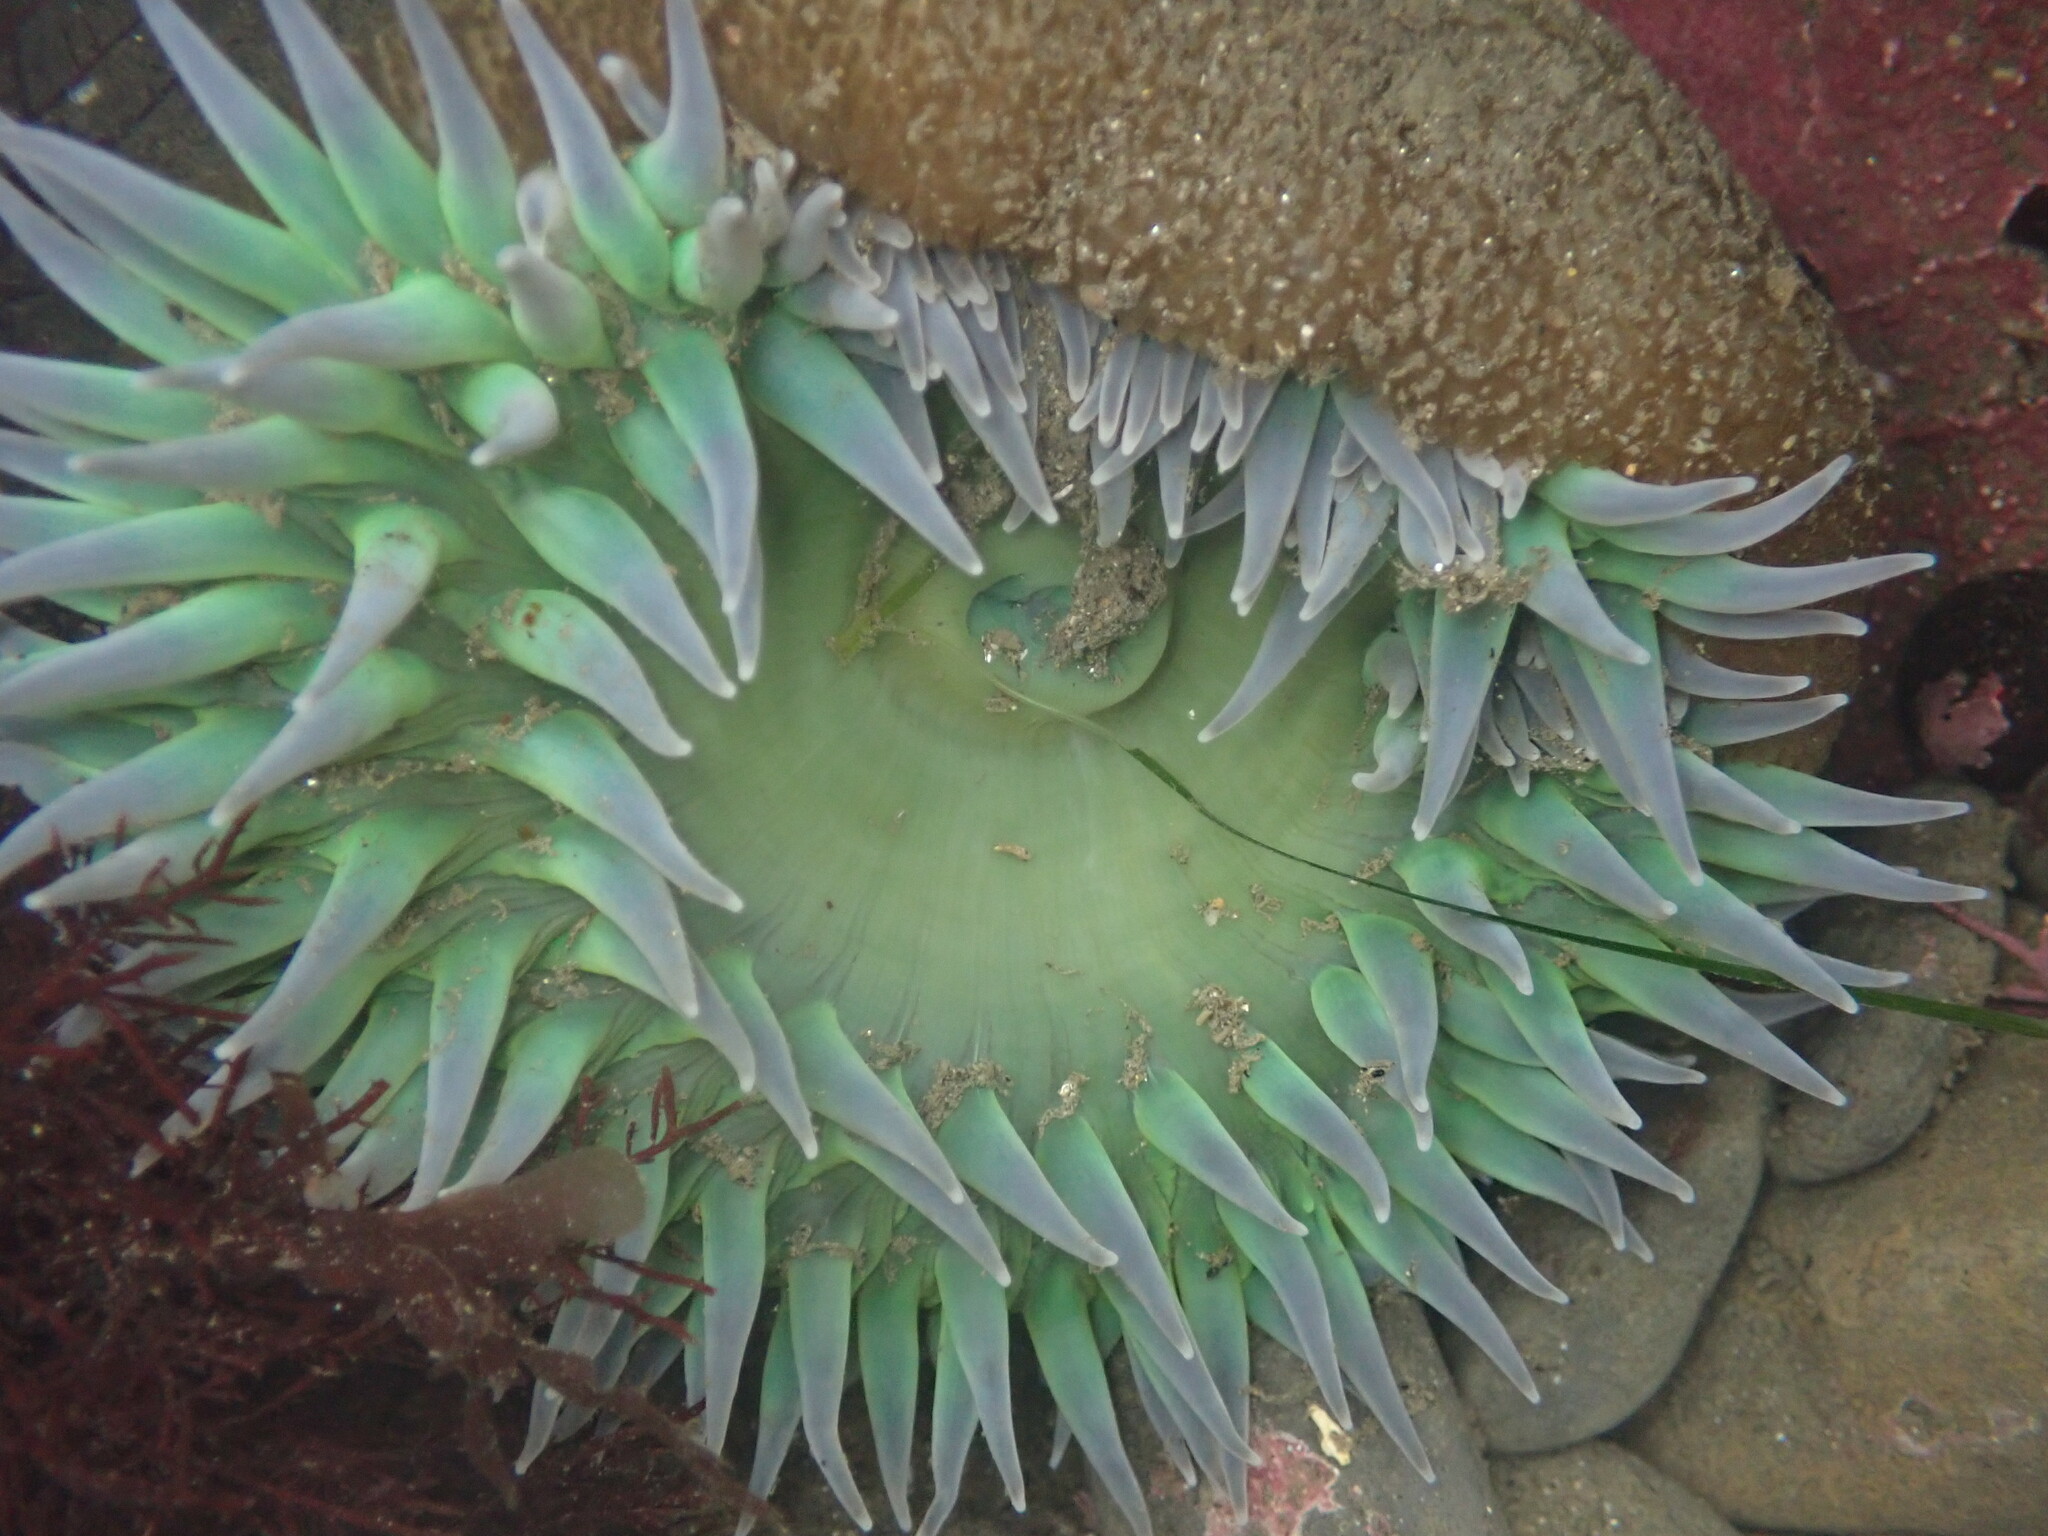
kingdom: Animalia
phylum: Cnidaria
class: Anthozoa
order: Actiniaria
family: Actiniidae
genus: Anthopleura
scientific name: Anthopleura xanthogrammica
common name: Giant green anemone
